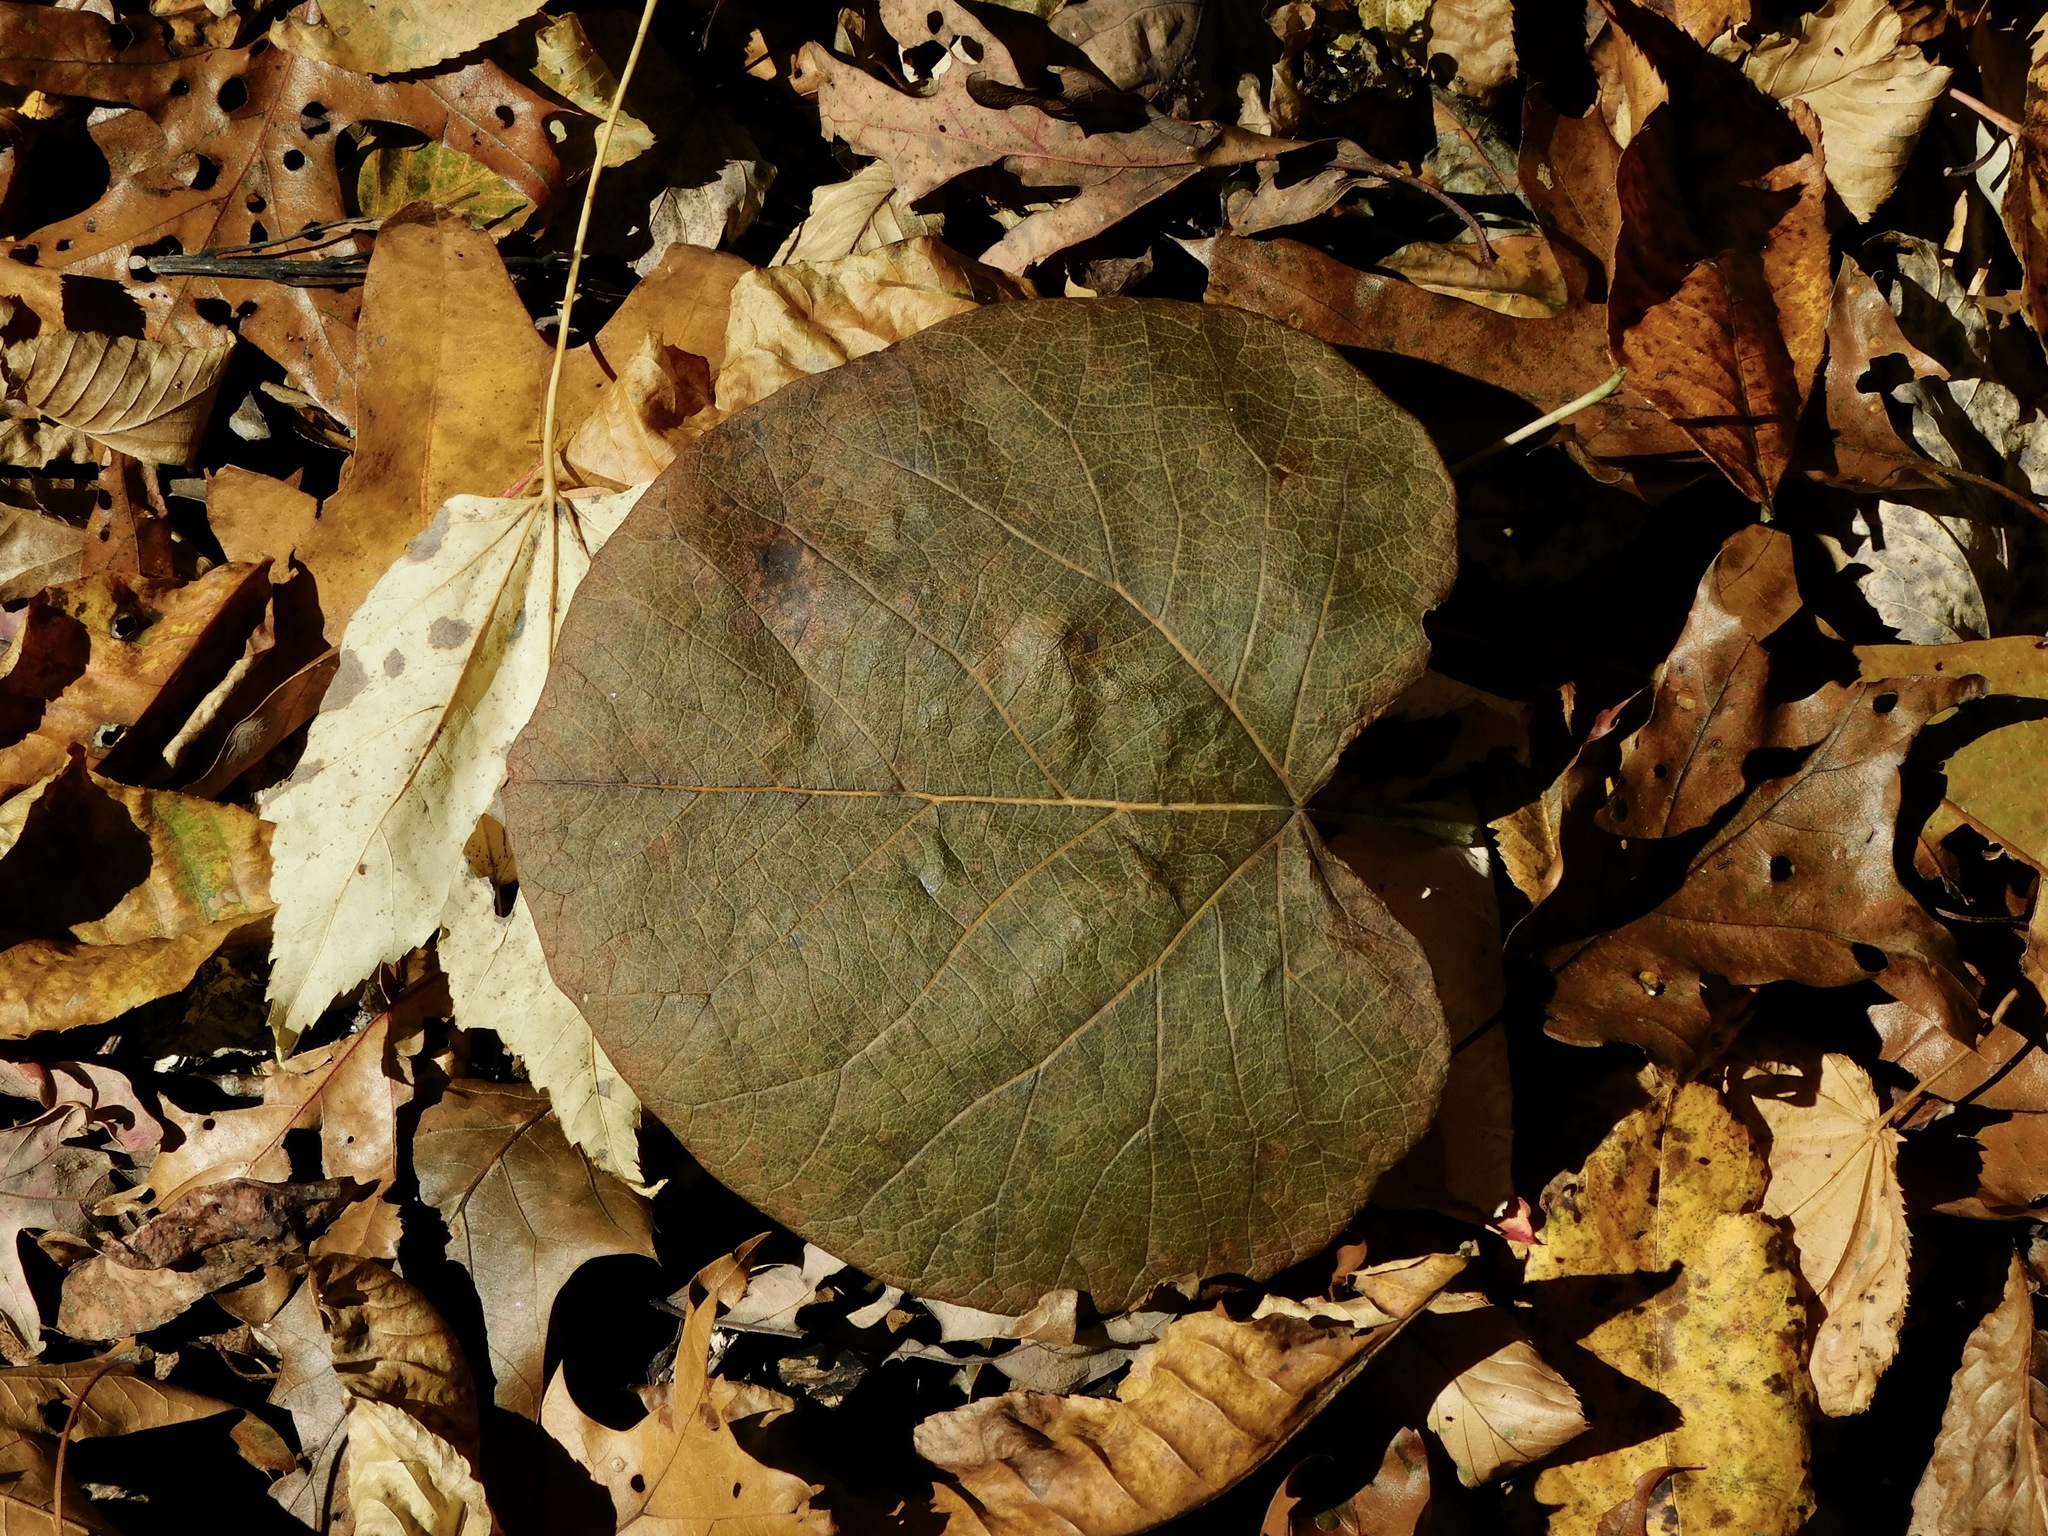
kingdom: Plantae
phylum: Tracheophyta
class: Magnoliopsida
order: Piperales
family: Aristolochiaceae
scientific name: Aristolochiaceae
